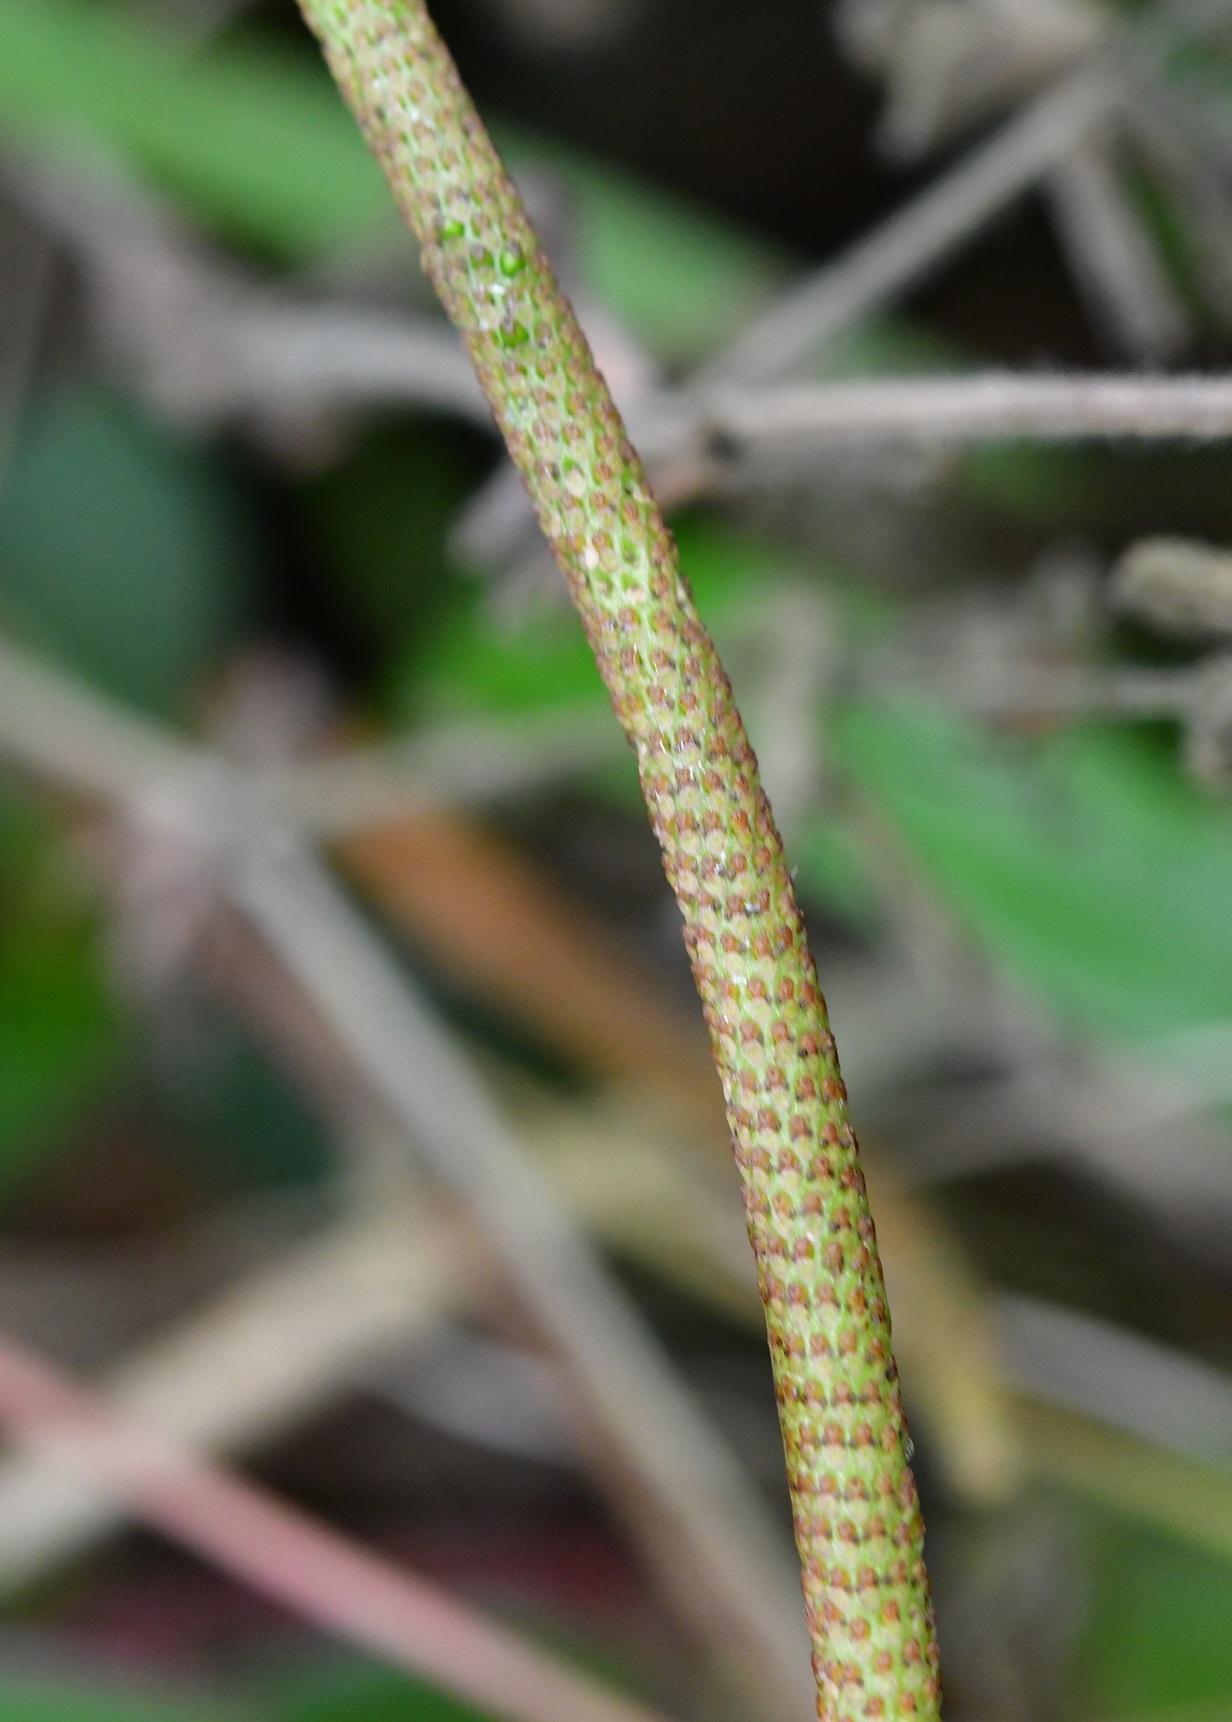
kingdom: Plantae
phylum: Tracheophyta
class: Magnoliopsida
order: Piperales
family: Piperaceae
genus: Peperomia
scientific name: Peperomia consoquitlana
